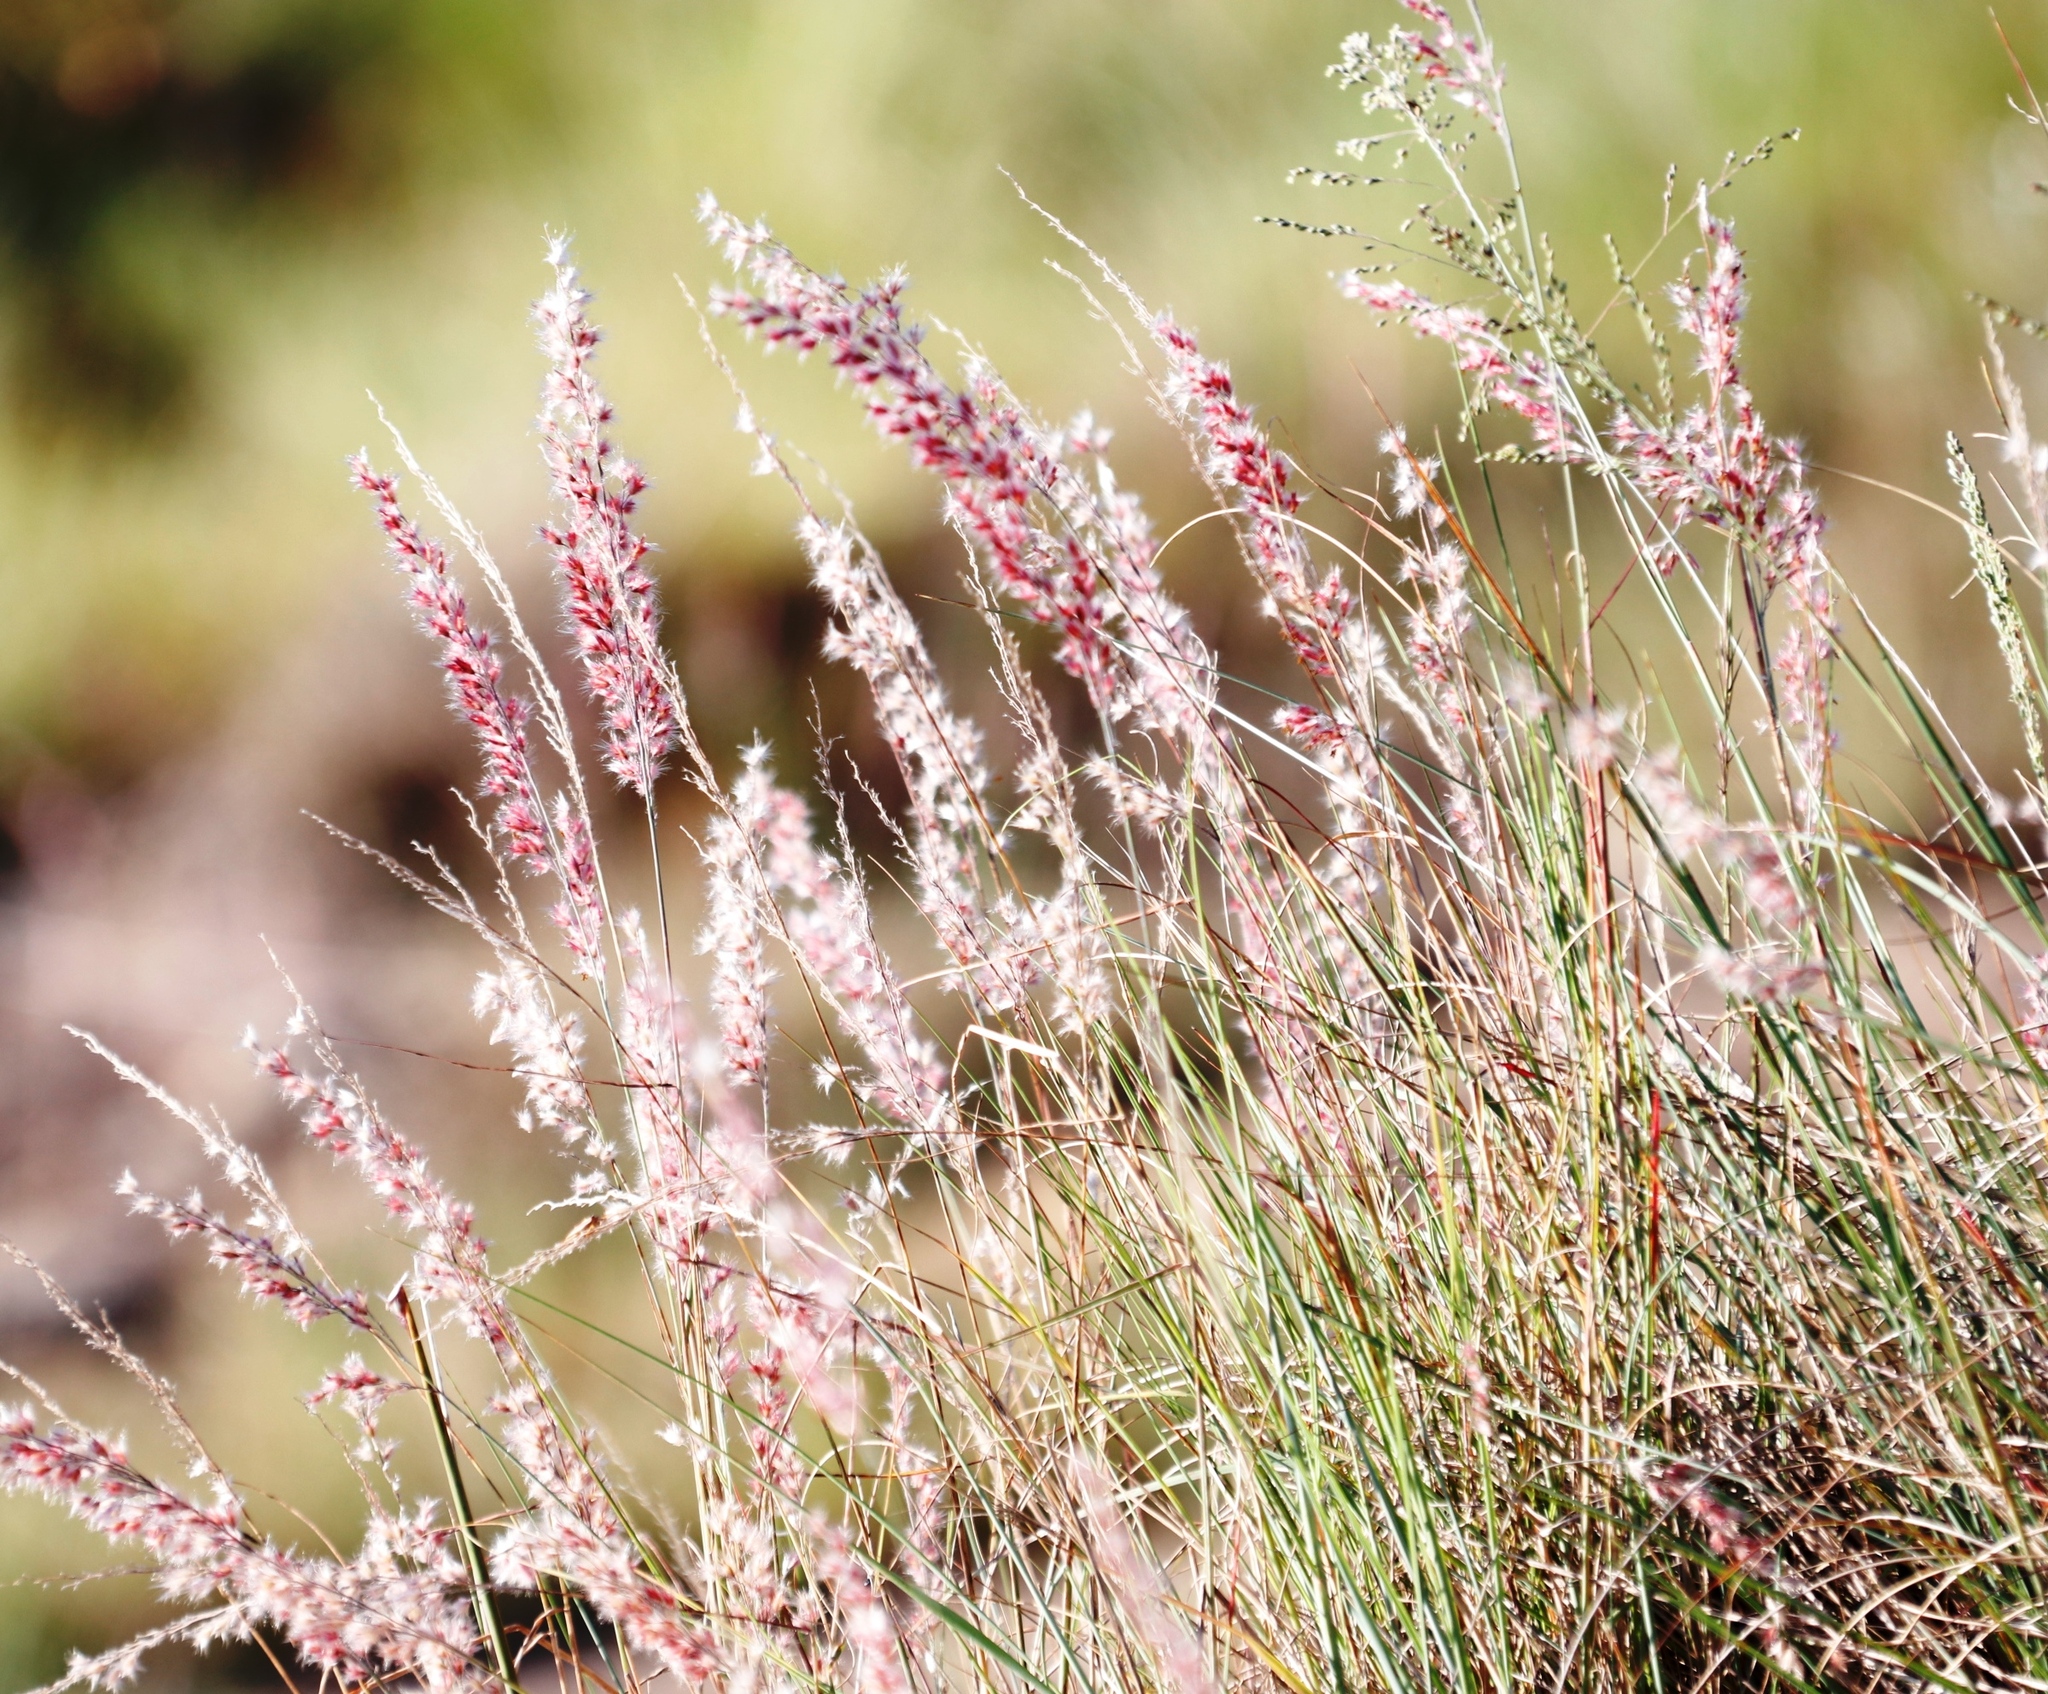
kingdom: Plantae
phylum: Tracheophyta
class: Liliopsida
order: Poales
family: Poaceae
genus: Melinis
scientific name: Melinis nerviglumis
